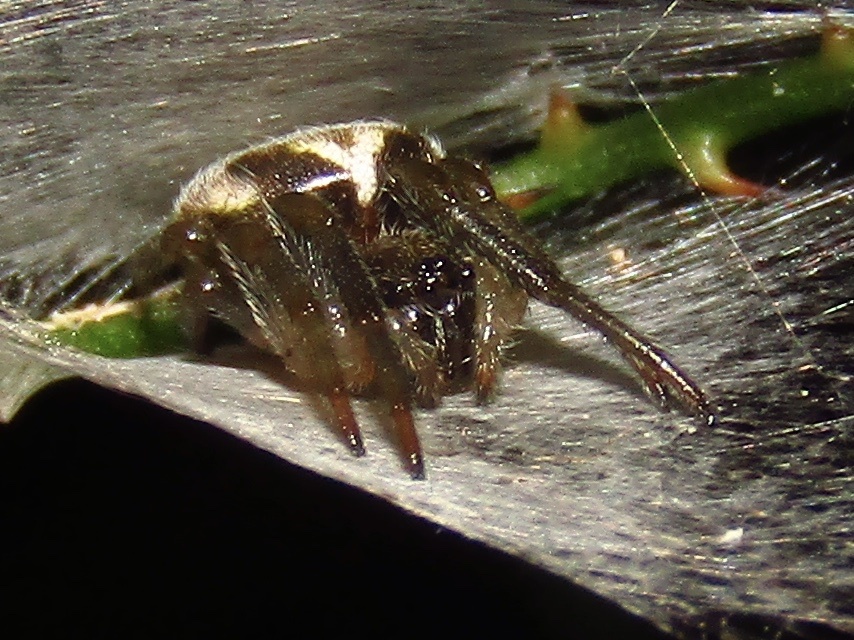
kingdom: Animalia
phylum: Arthropoda
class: Arachnida
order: Araneae
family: Araneidae
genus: Leviana
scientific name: Leviana folium
